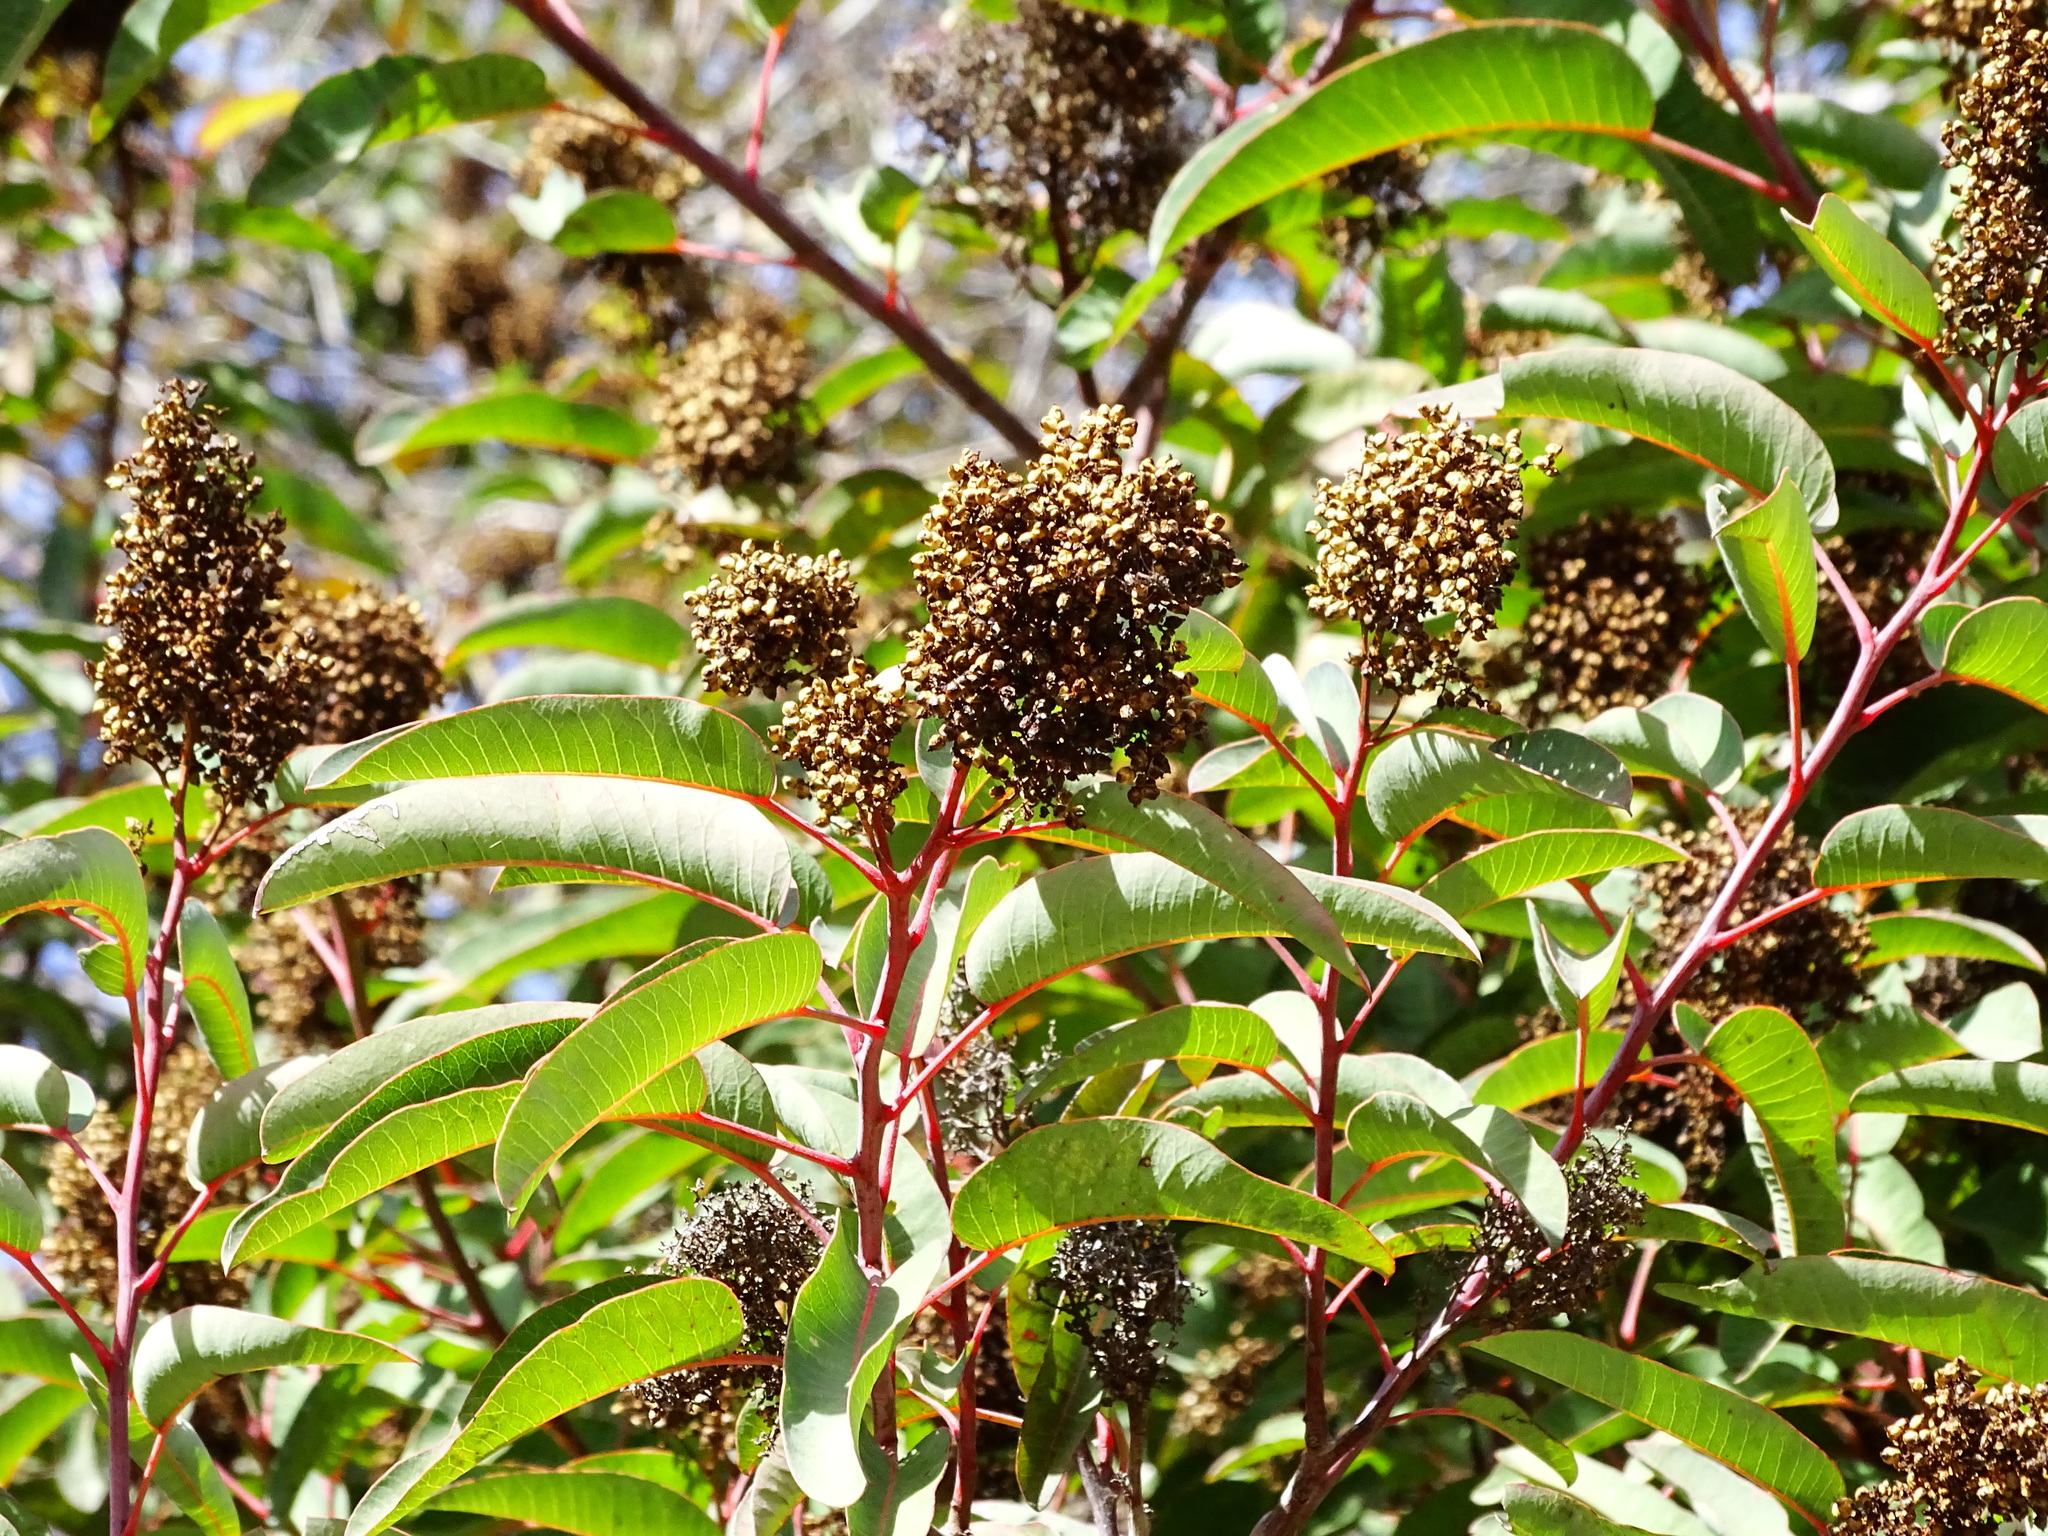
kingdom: Plantae
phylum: Tracheophyta
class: Magnoliopsida
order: Sapindales
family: Anacardiaceae
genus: Malosma
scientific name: Malosma laurina
